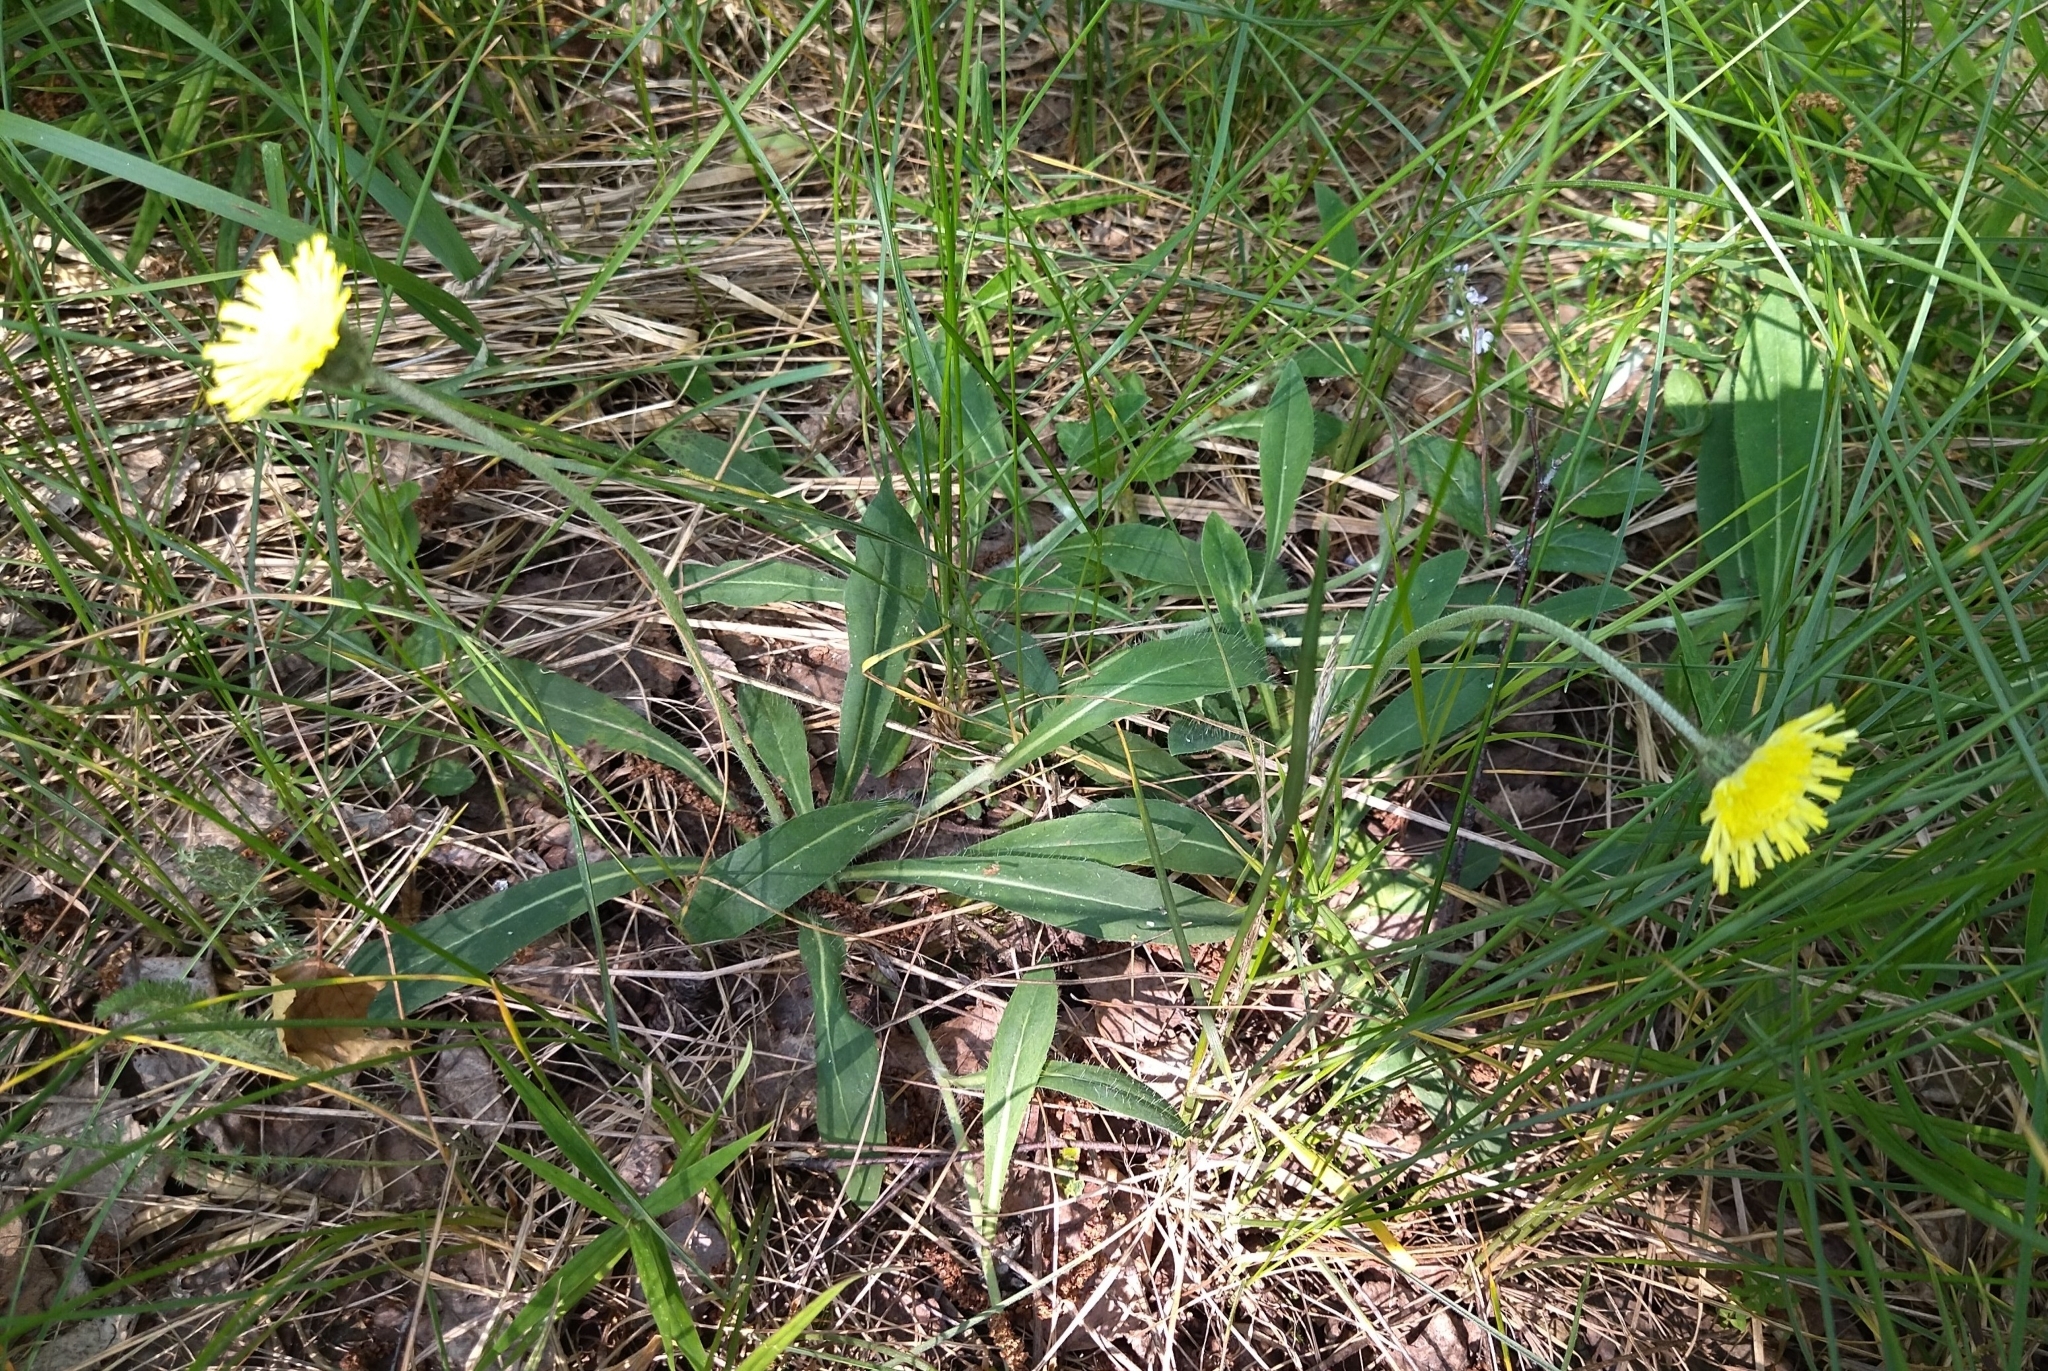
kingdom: Plantae
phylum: Tracheophyta
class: Magnoliopsida
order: Asterales
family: Asteraceae
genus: Pilosella
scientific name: Pilosella officinarum
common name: Mouse-ear hawkweed
